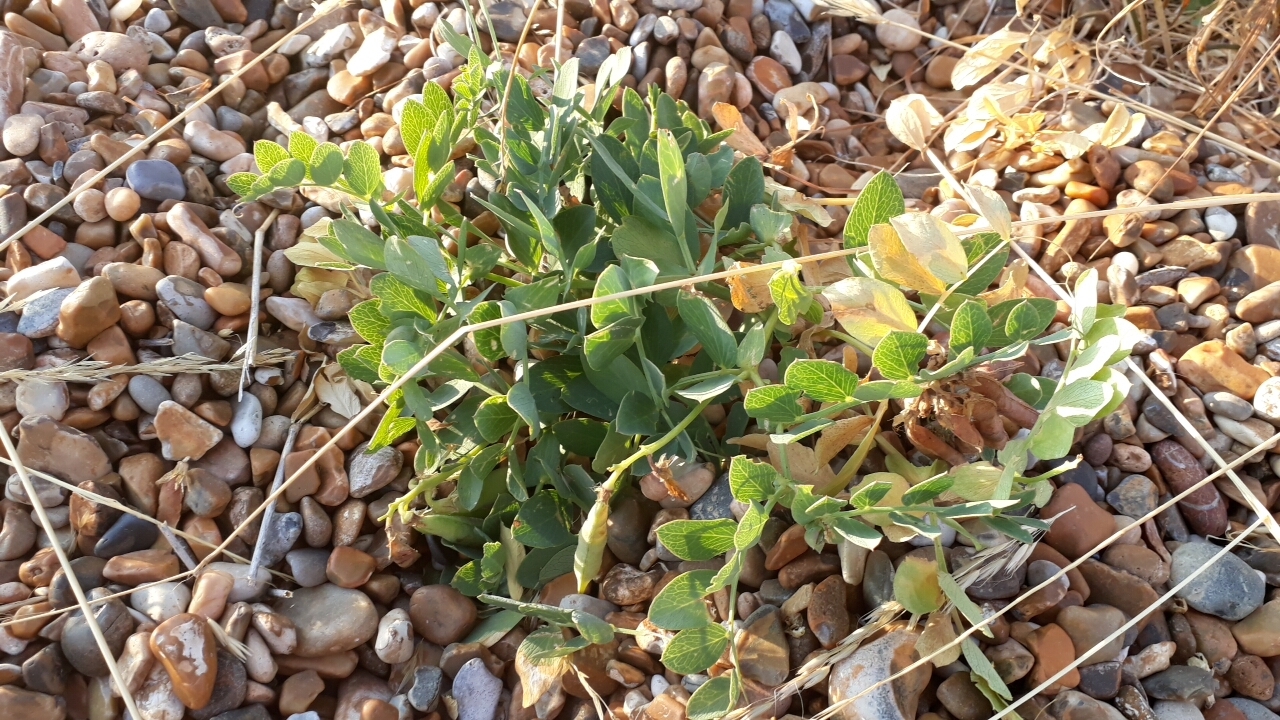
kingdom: Plantae
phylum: Tracheophyta
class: Magnoliopsida
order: Fabales
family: Fabaceae
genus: Lathyrus
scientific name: Lathyrus japonicus
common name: Sea pea
